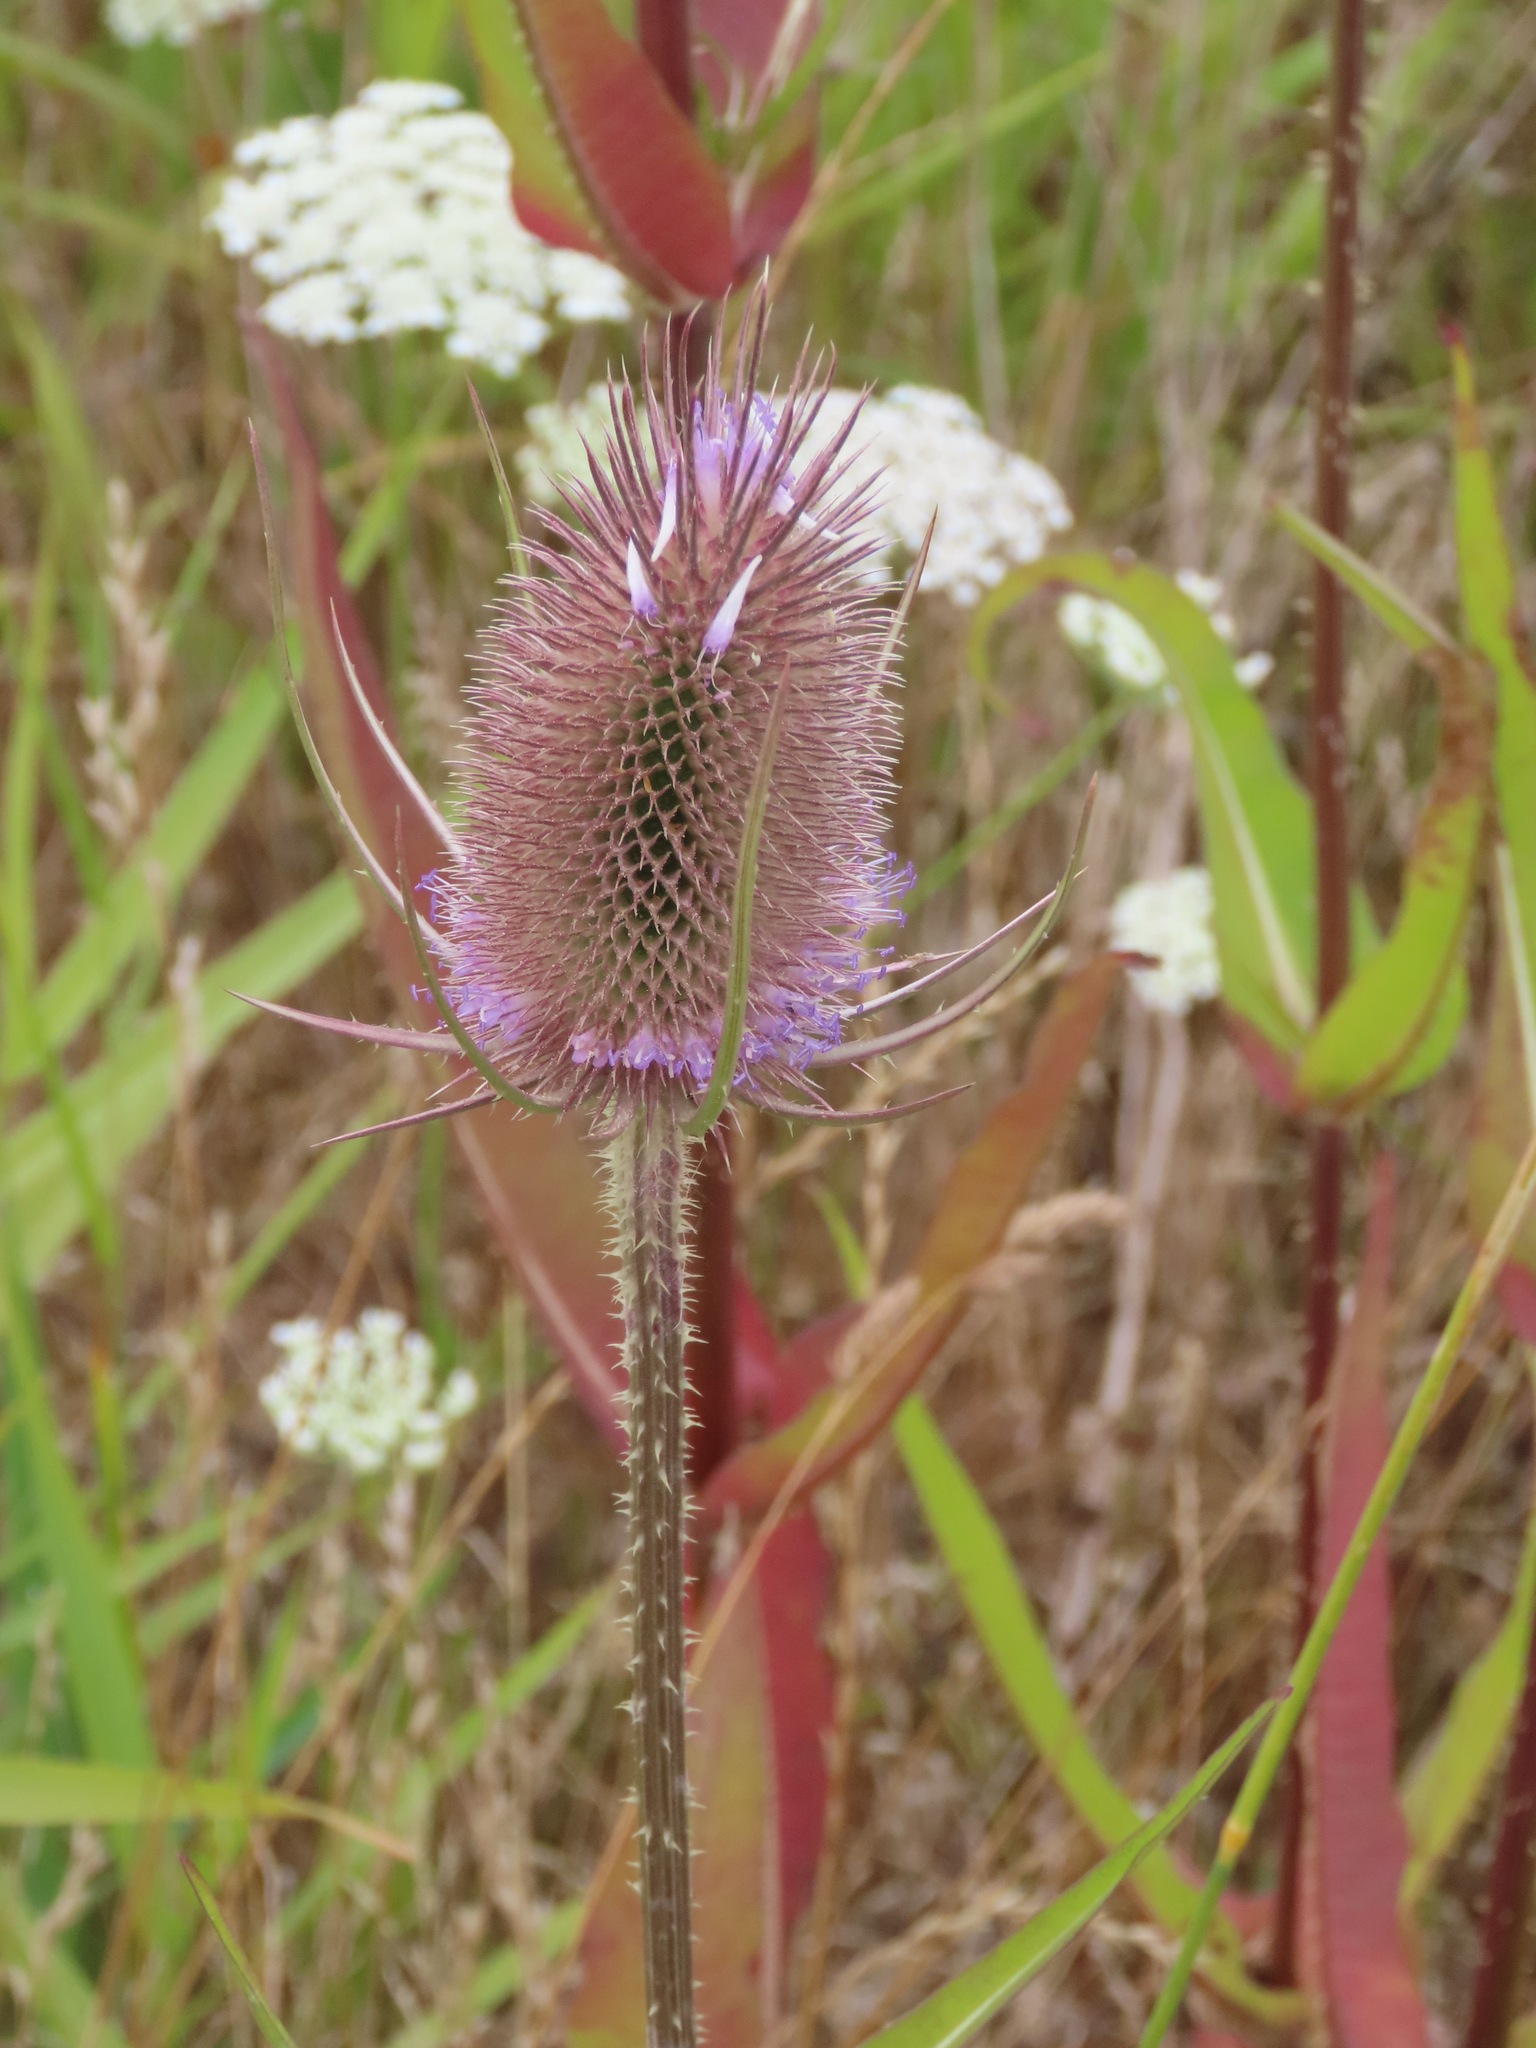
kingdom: Plantae
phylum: Tracheophyta
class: Magnoliopsida
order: Dipsacales
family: Caprifoliaceae
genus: Dipsacus
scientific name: Dipsacus fullonum
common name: Teasel
